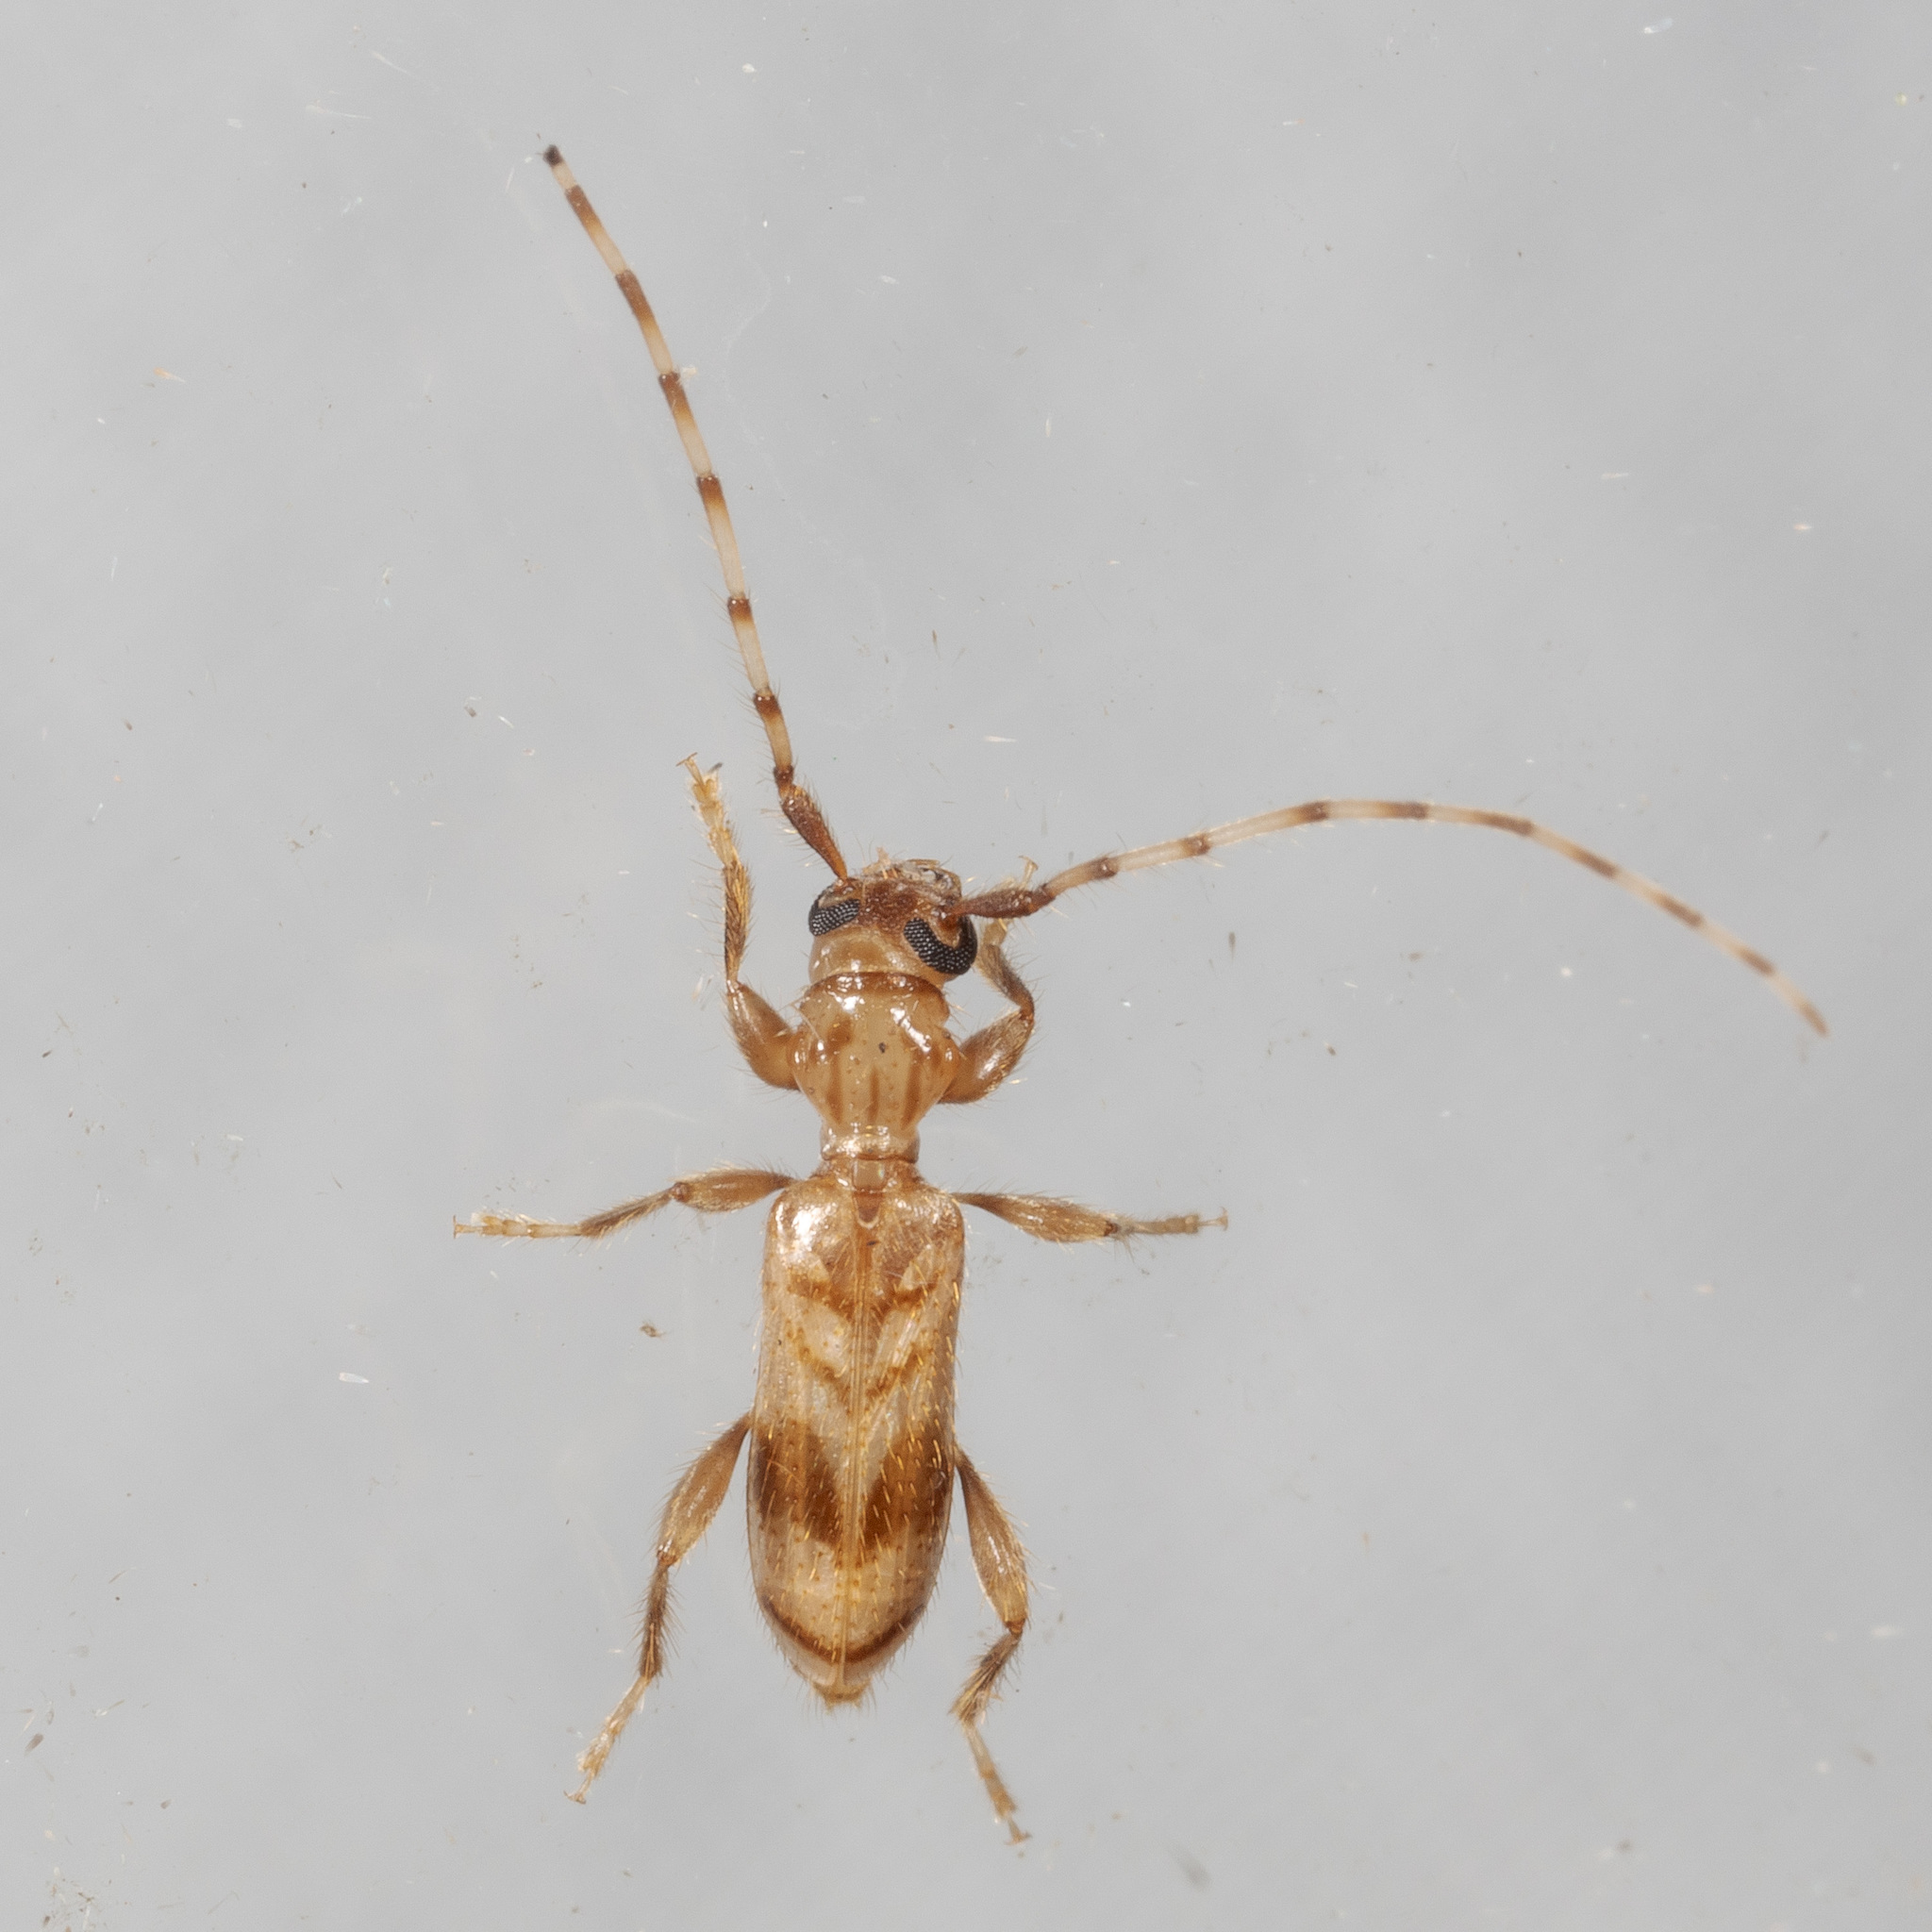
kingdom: Animalia
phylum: Arthropoda
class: Insecta
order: Coleoptera
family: Cerambycidae
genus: Obrium
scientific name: Obrium maculatum
